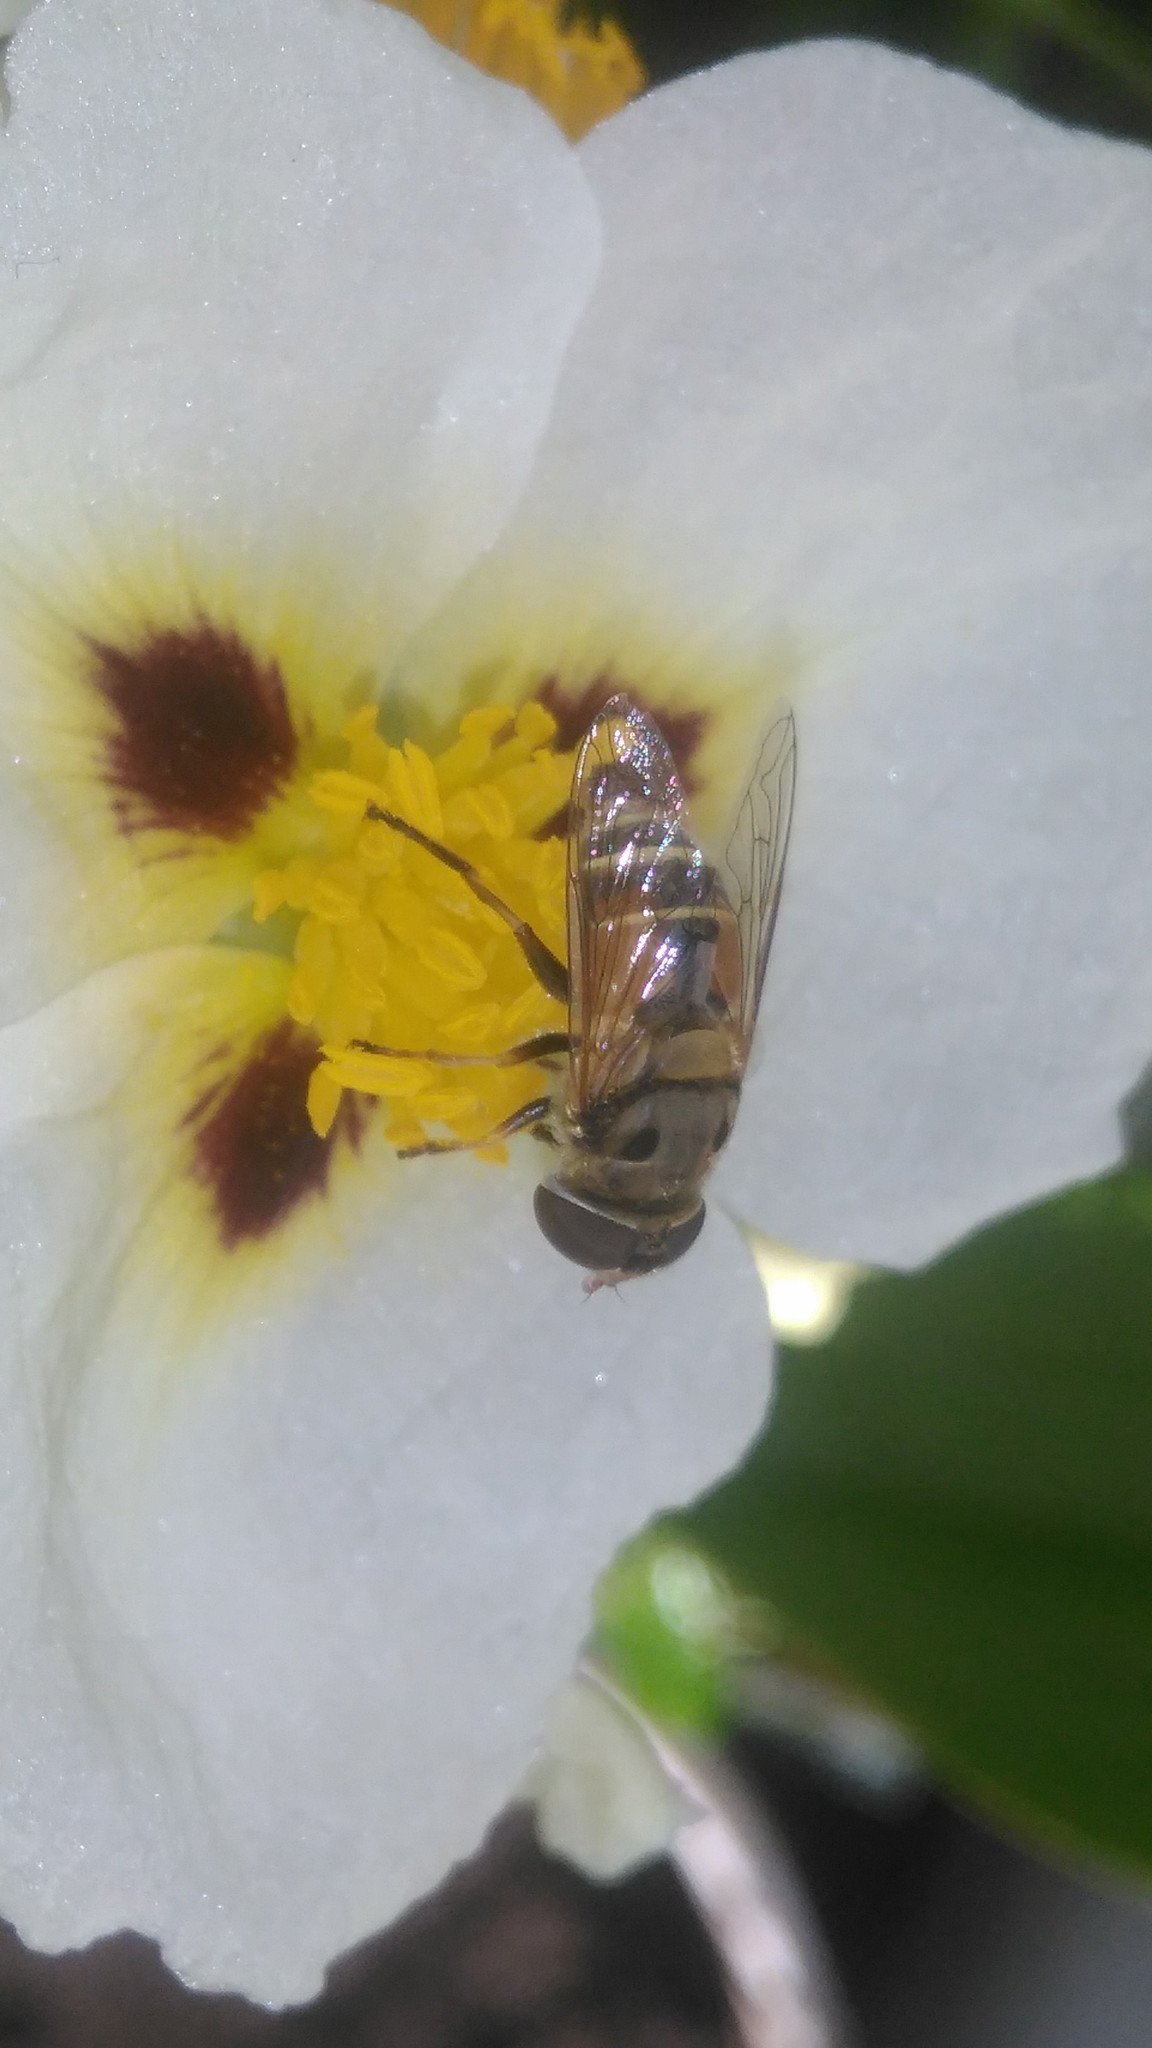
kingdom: Animalia
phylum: Arthropoda
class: Insecta
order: Diptera
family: Syrphidae
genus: Palpada
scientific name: Palpada
